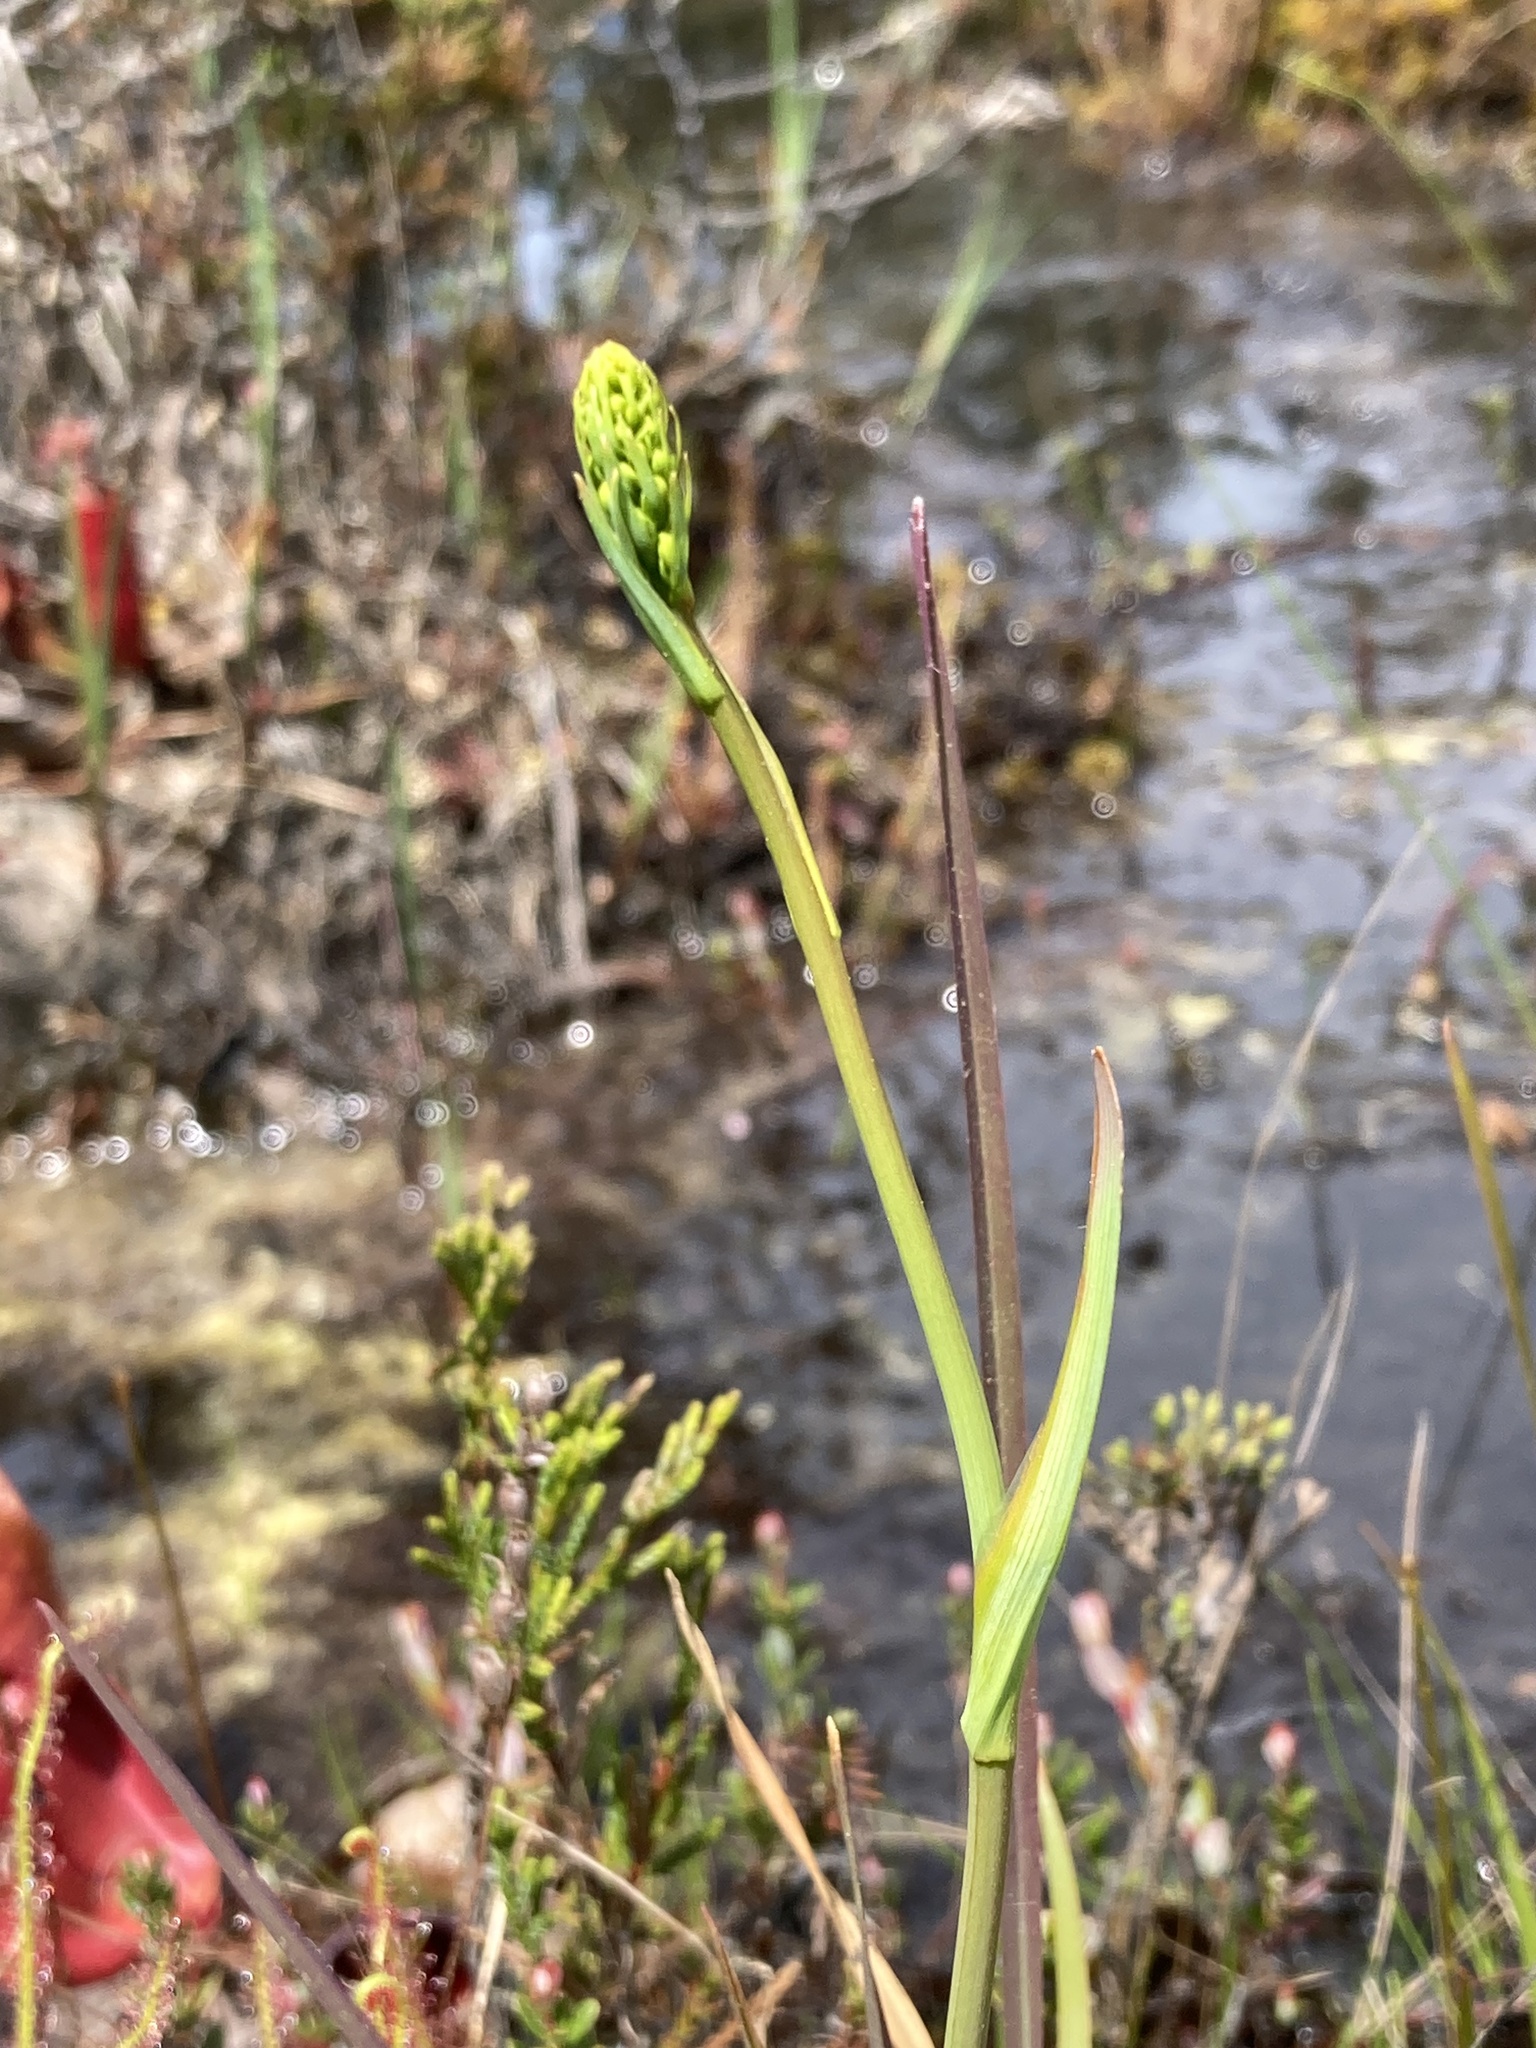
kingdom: Plantae
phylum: Tracheophyta
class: Liliopsida
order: Dioscoreales
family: Nartheciaceae
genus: Narthecium
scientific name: Narthecium americanum
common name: Bog-asphodel
